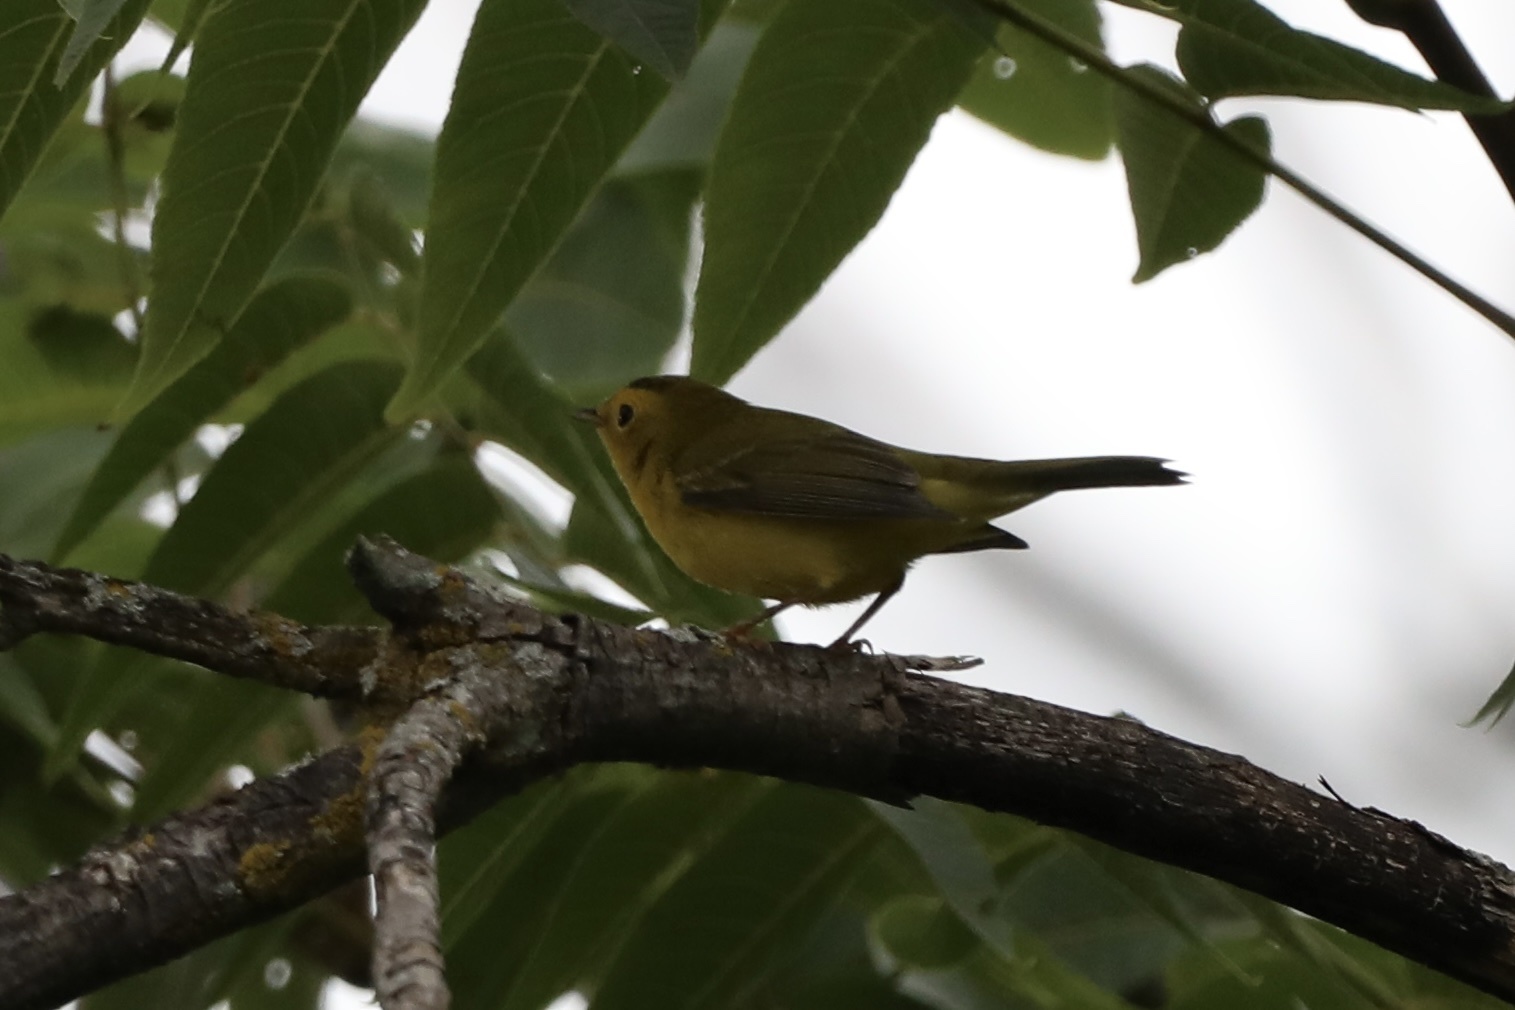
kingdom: Animalia
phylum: Chordata
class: Aves
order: Passeriformes
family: Parulidae
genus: Cardellina
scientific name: Cardellina pusilla
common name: Wilson's warbler
